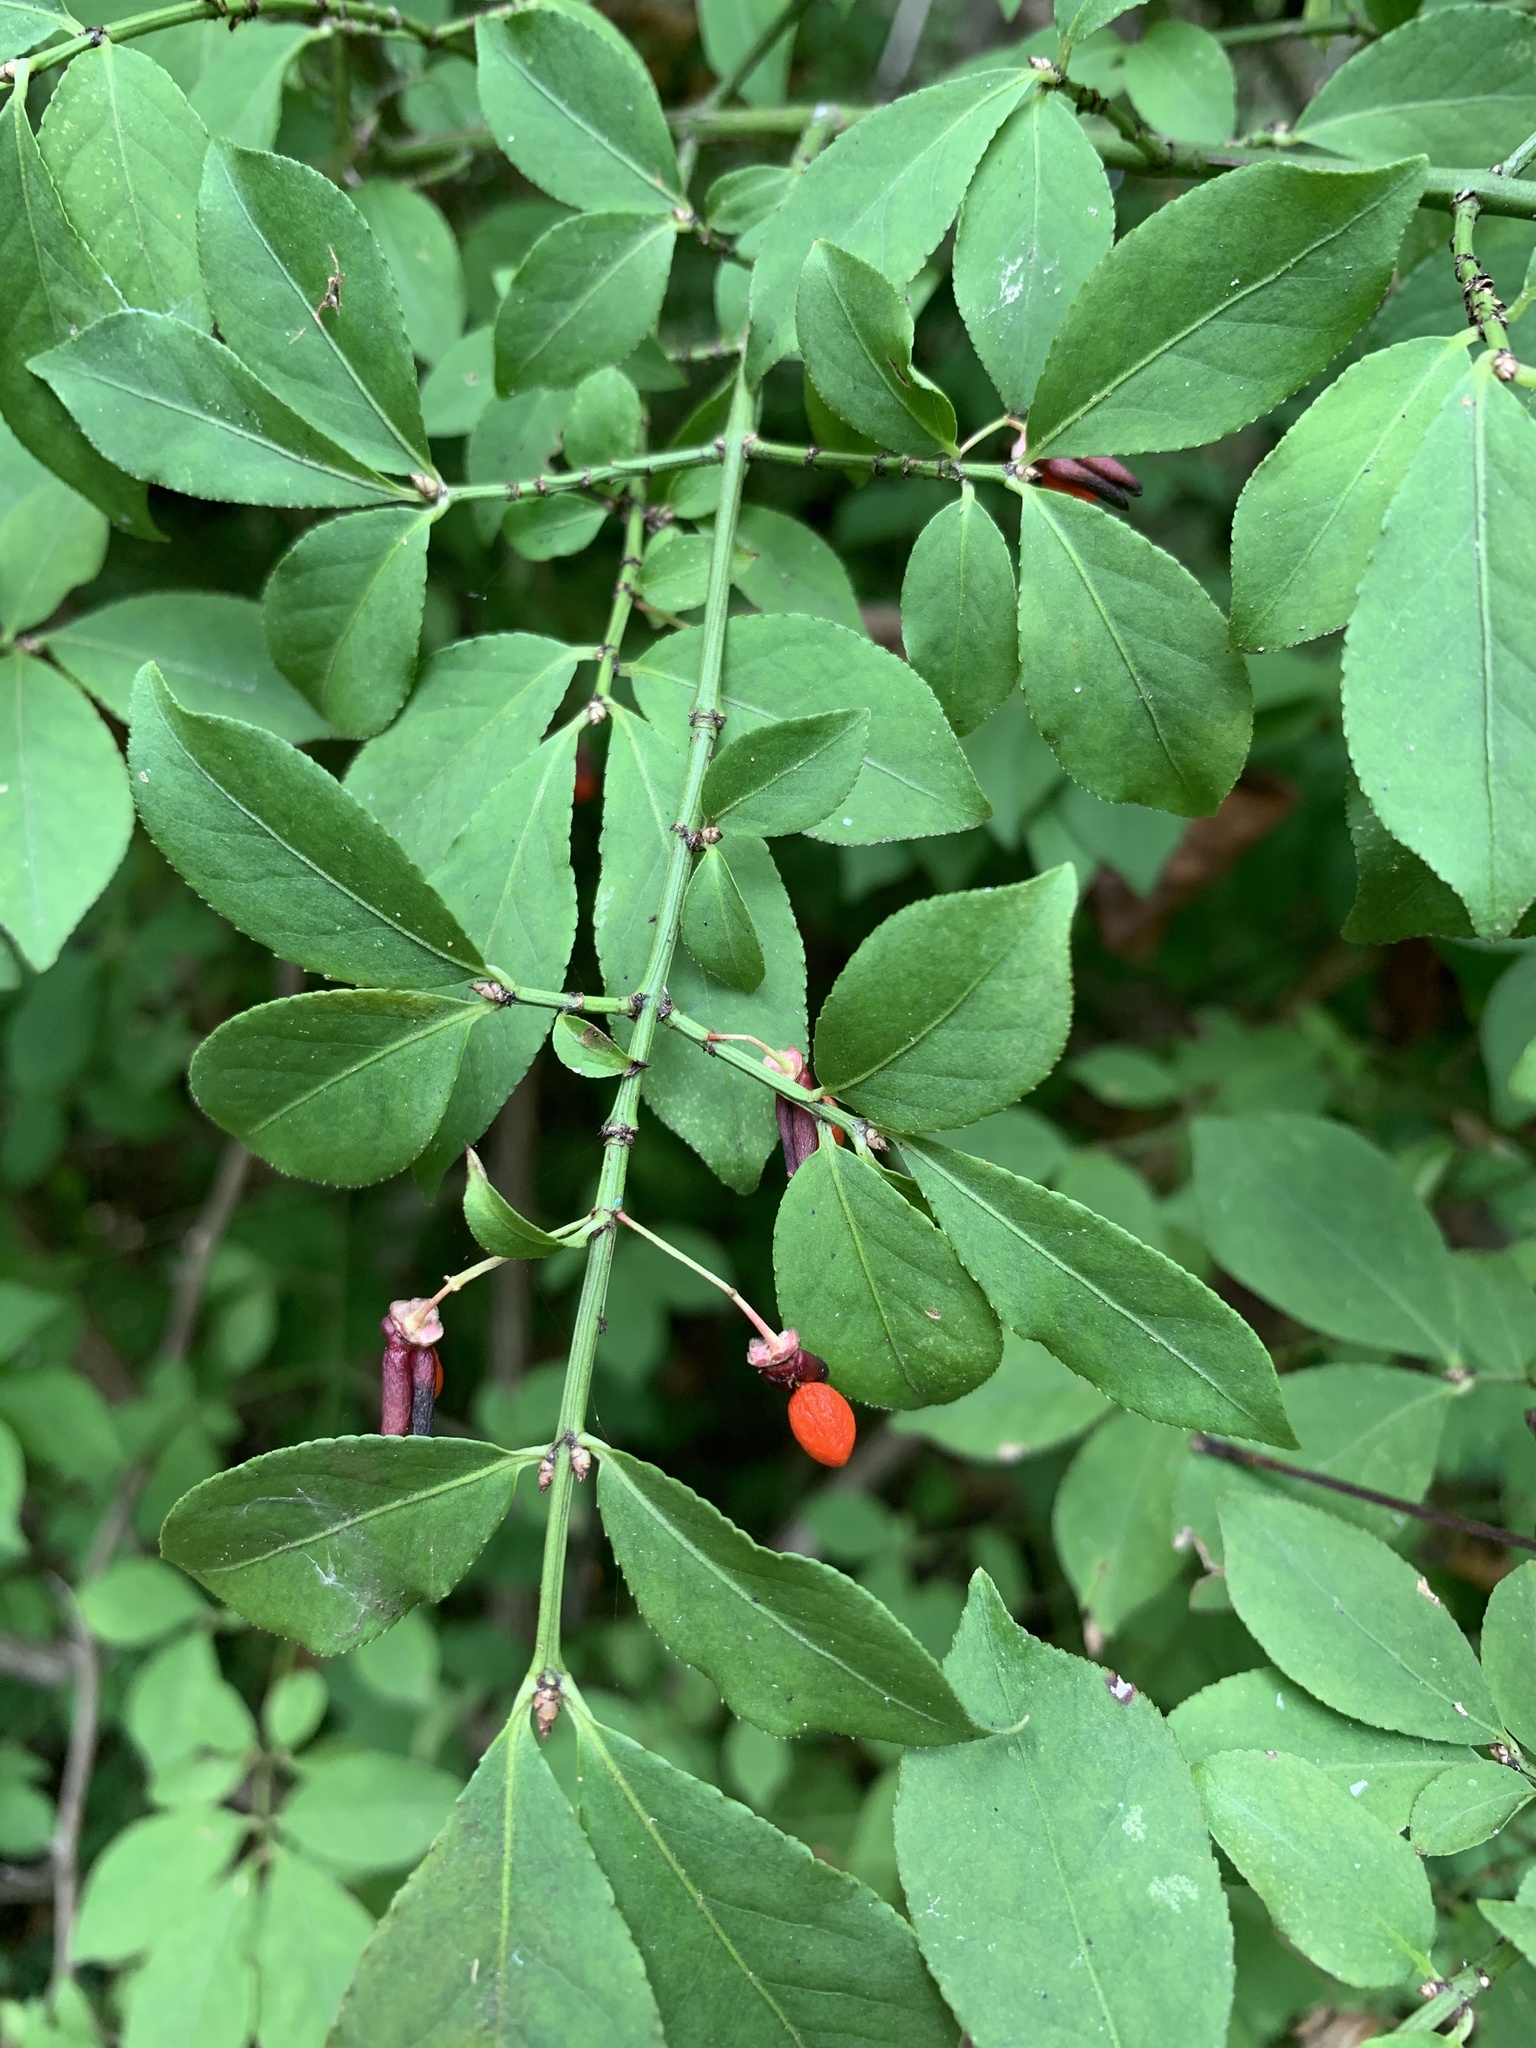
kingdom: Plantae
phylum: Tracheophyta
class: Magnoliopsida
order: Celastrales
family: Celastraceae
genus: Euonymus
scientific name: Euonymus alatus
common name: Winged euonymus
